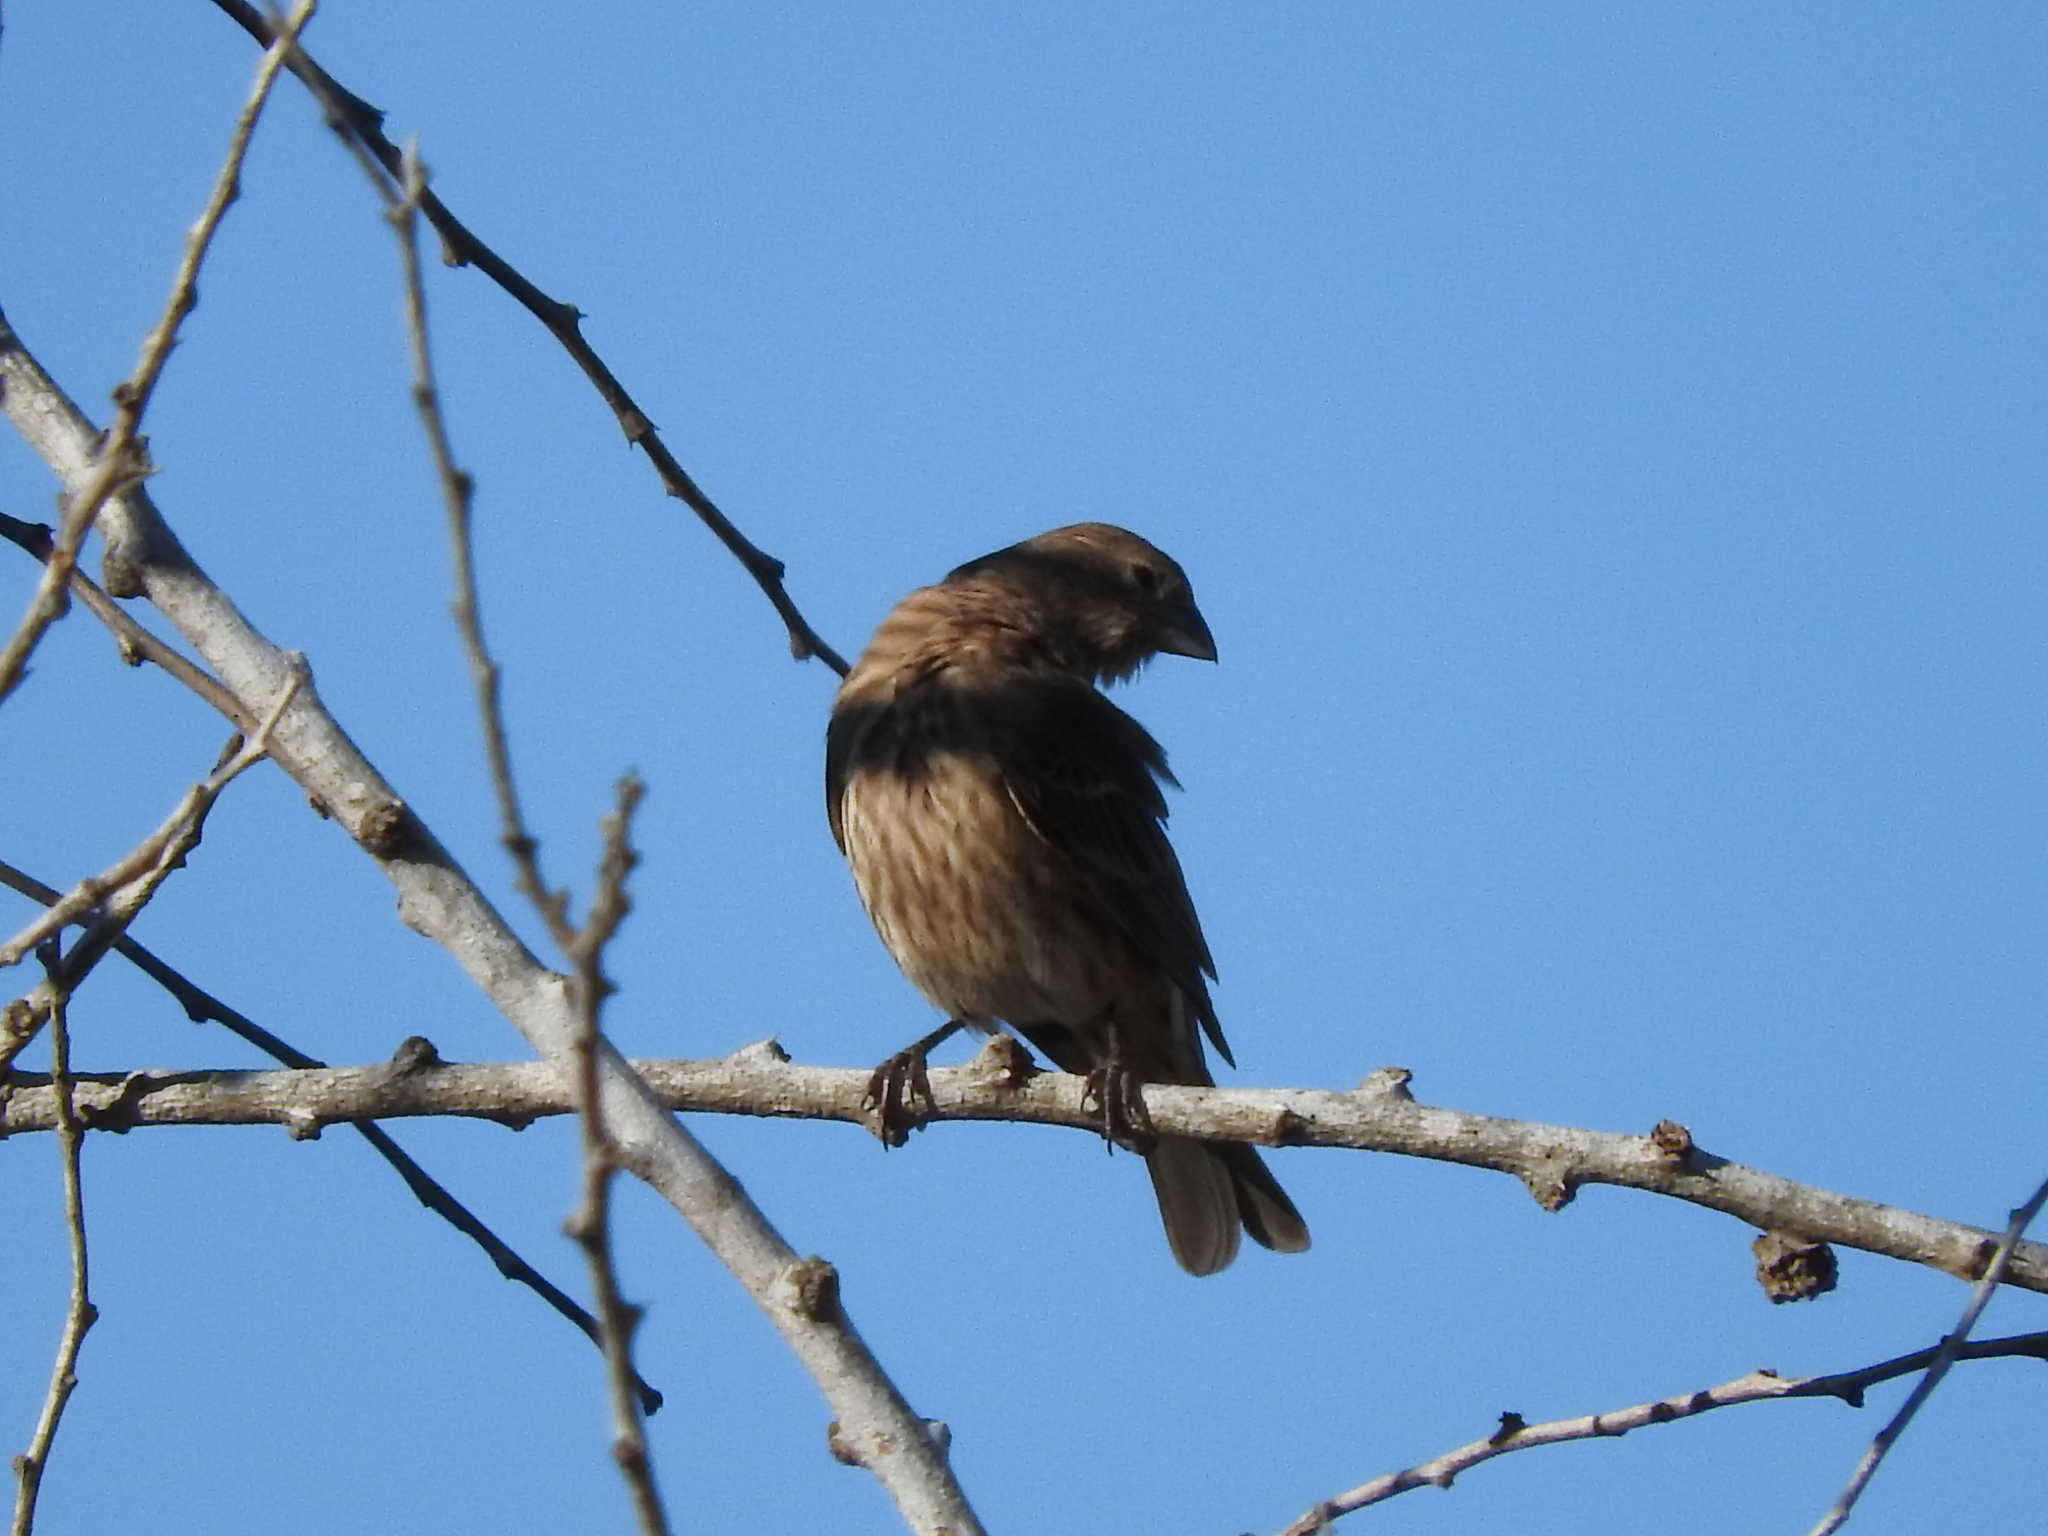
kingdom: Animalia
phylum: Chordata
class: Aves
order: Passeriformes
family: Fringillidae
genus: Haemorhous
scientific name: Haemorhous mexicanus
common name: House finch
